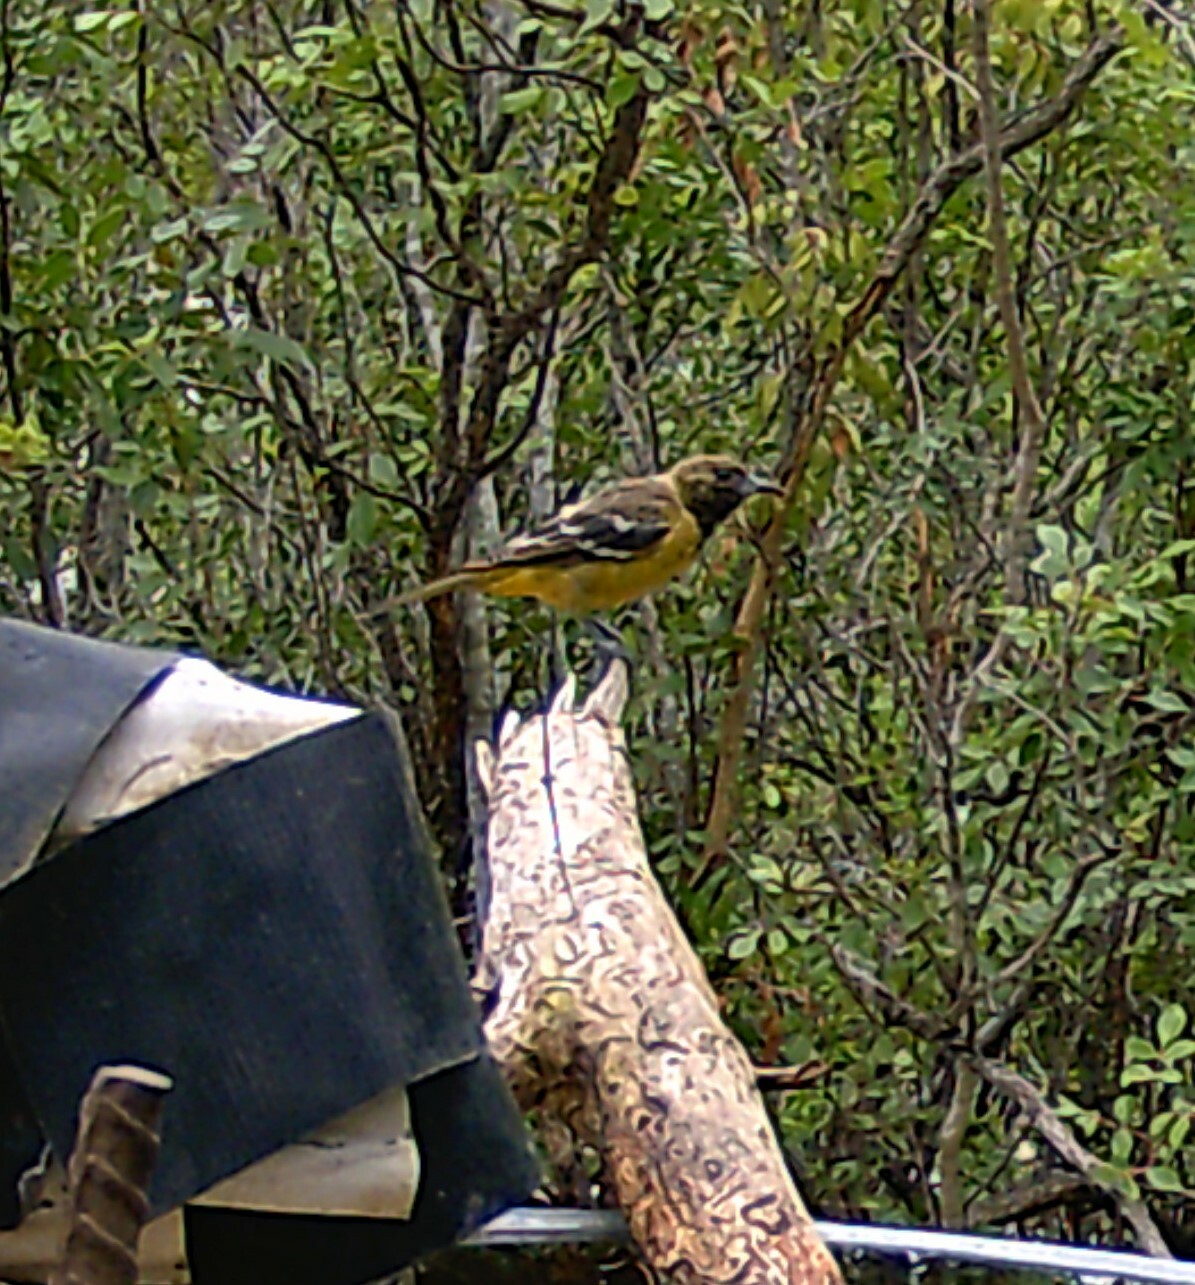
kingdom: Animalia
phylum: Chordata
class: Aves
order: Passeriformes
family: Icteridae
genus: Icterus
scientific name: Icterus parisorum
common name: Scott's oriole
